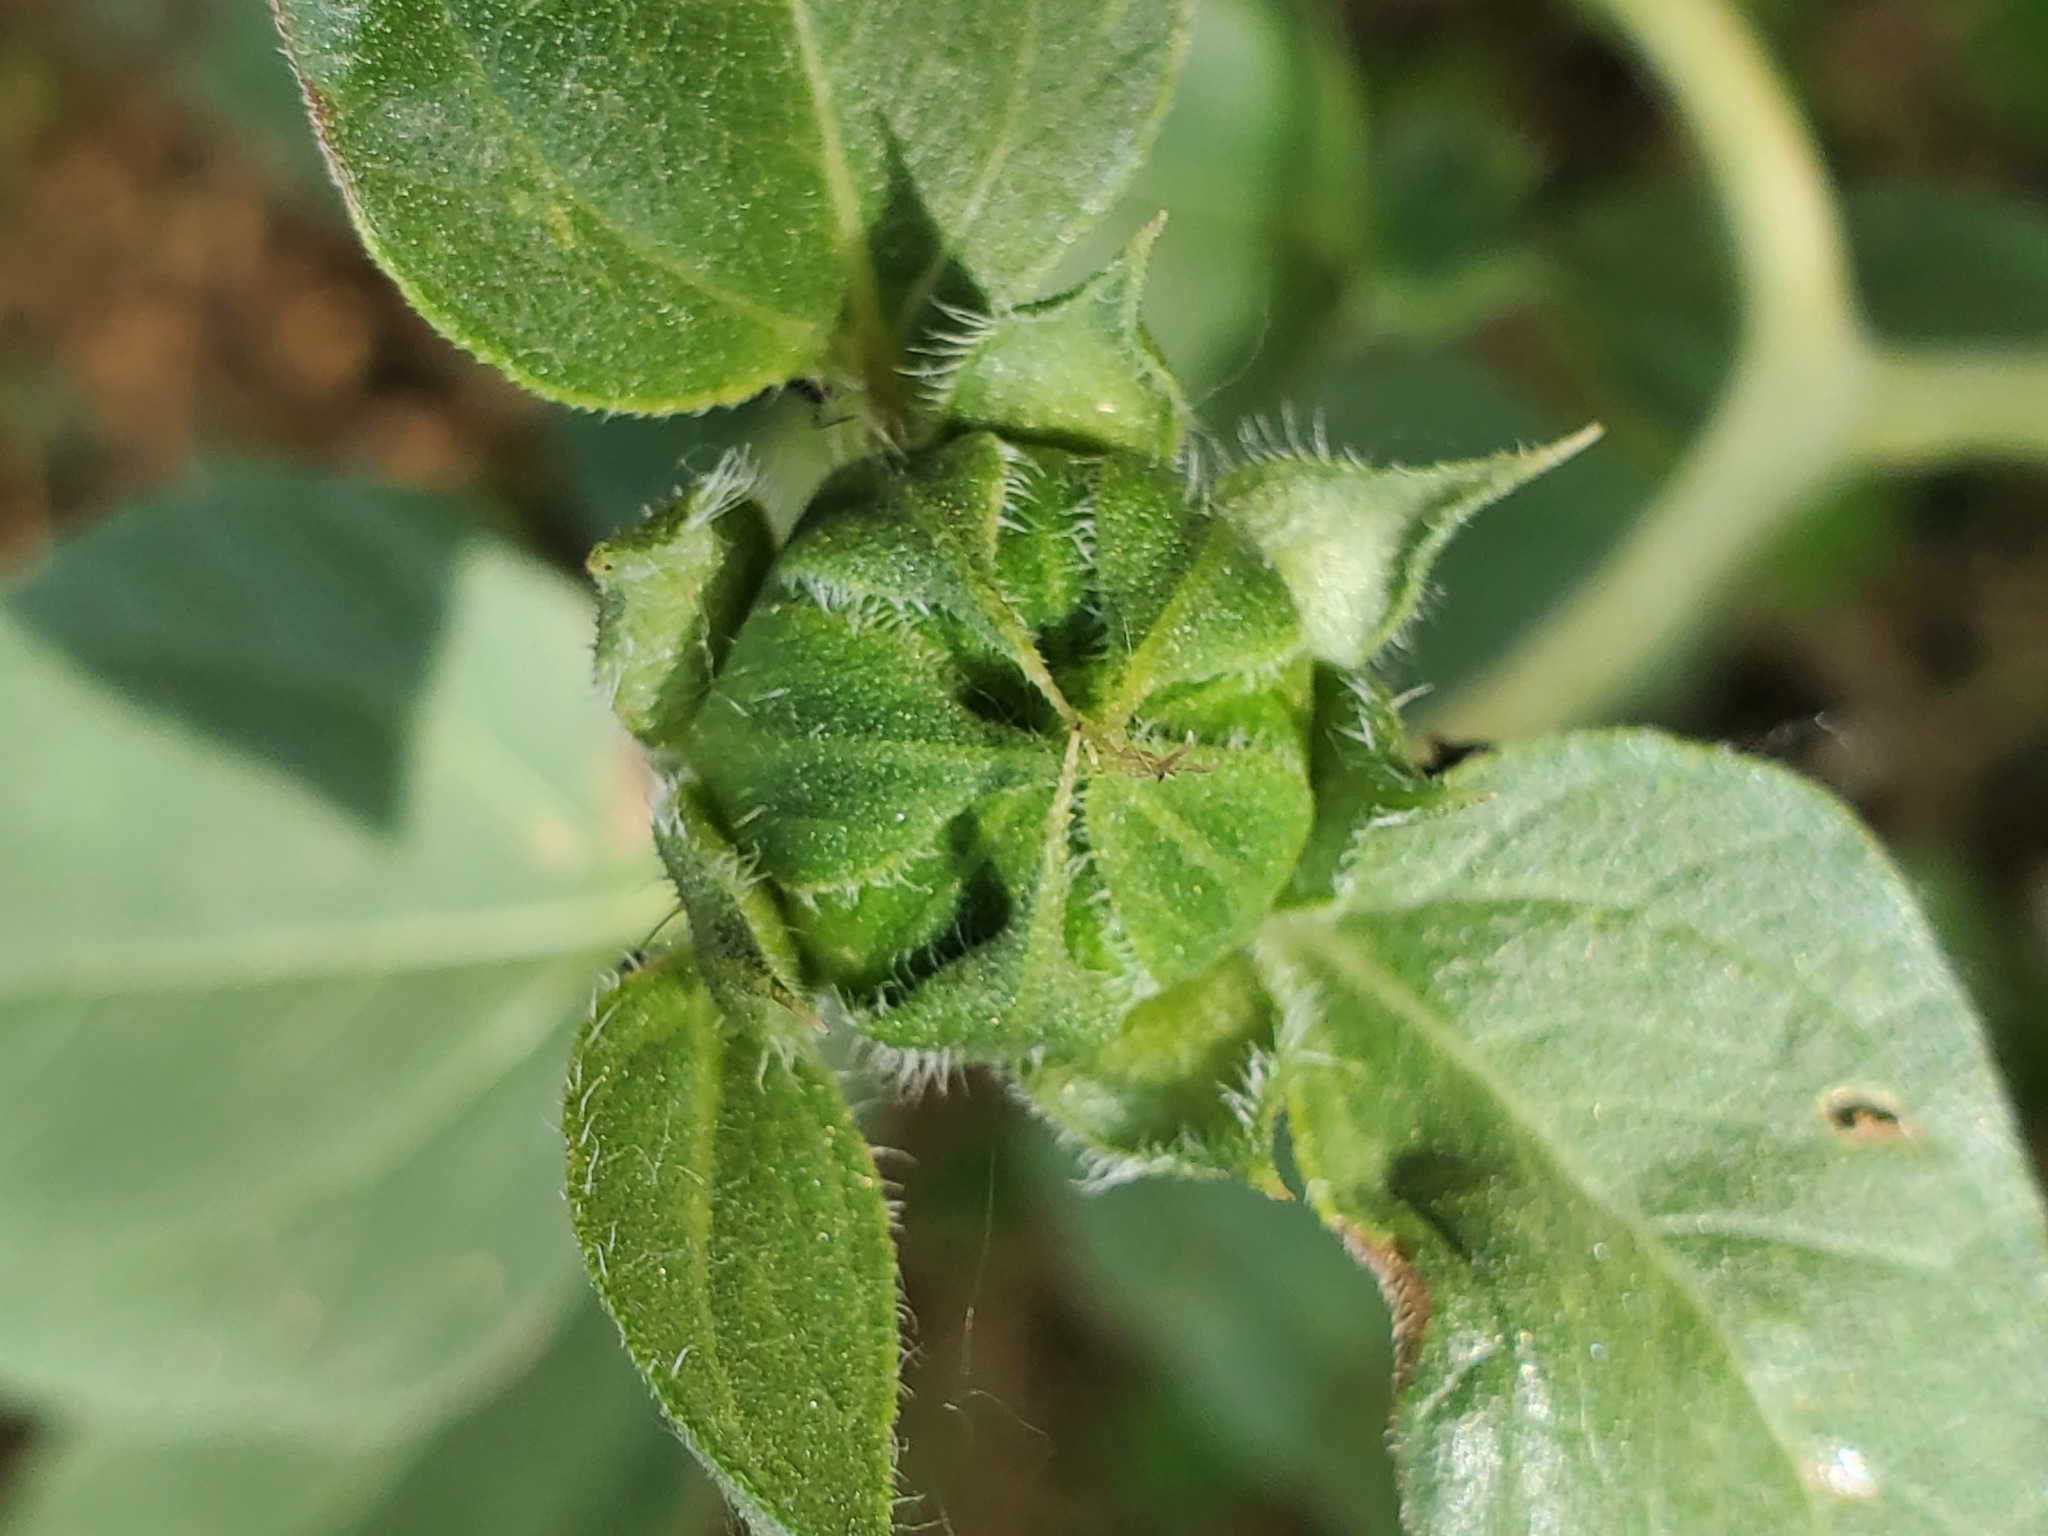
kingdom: Plantae
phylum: Tracheophyta
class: Magnoliopsida
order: Asterales
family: Asteraceae
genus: Helianthus
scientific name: Helianthus annuus
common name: Sunflower
